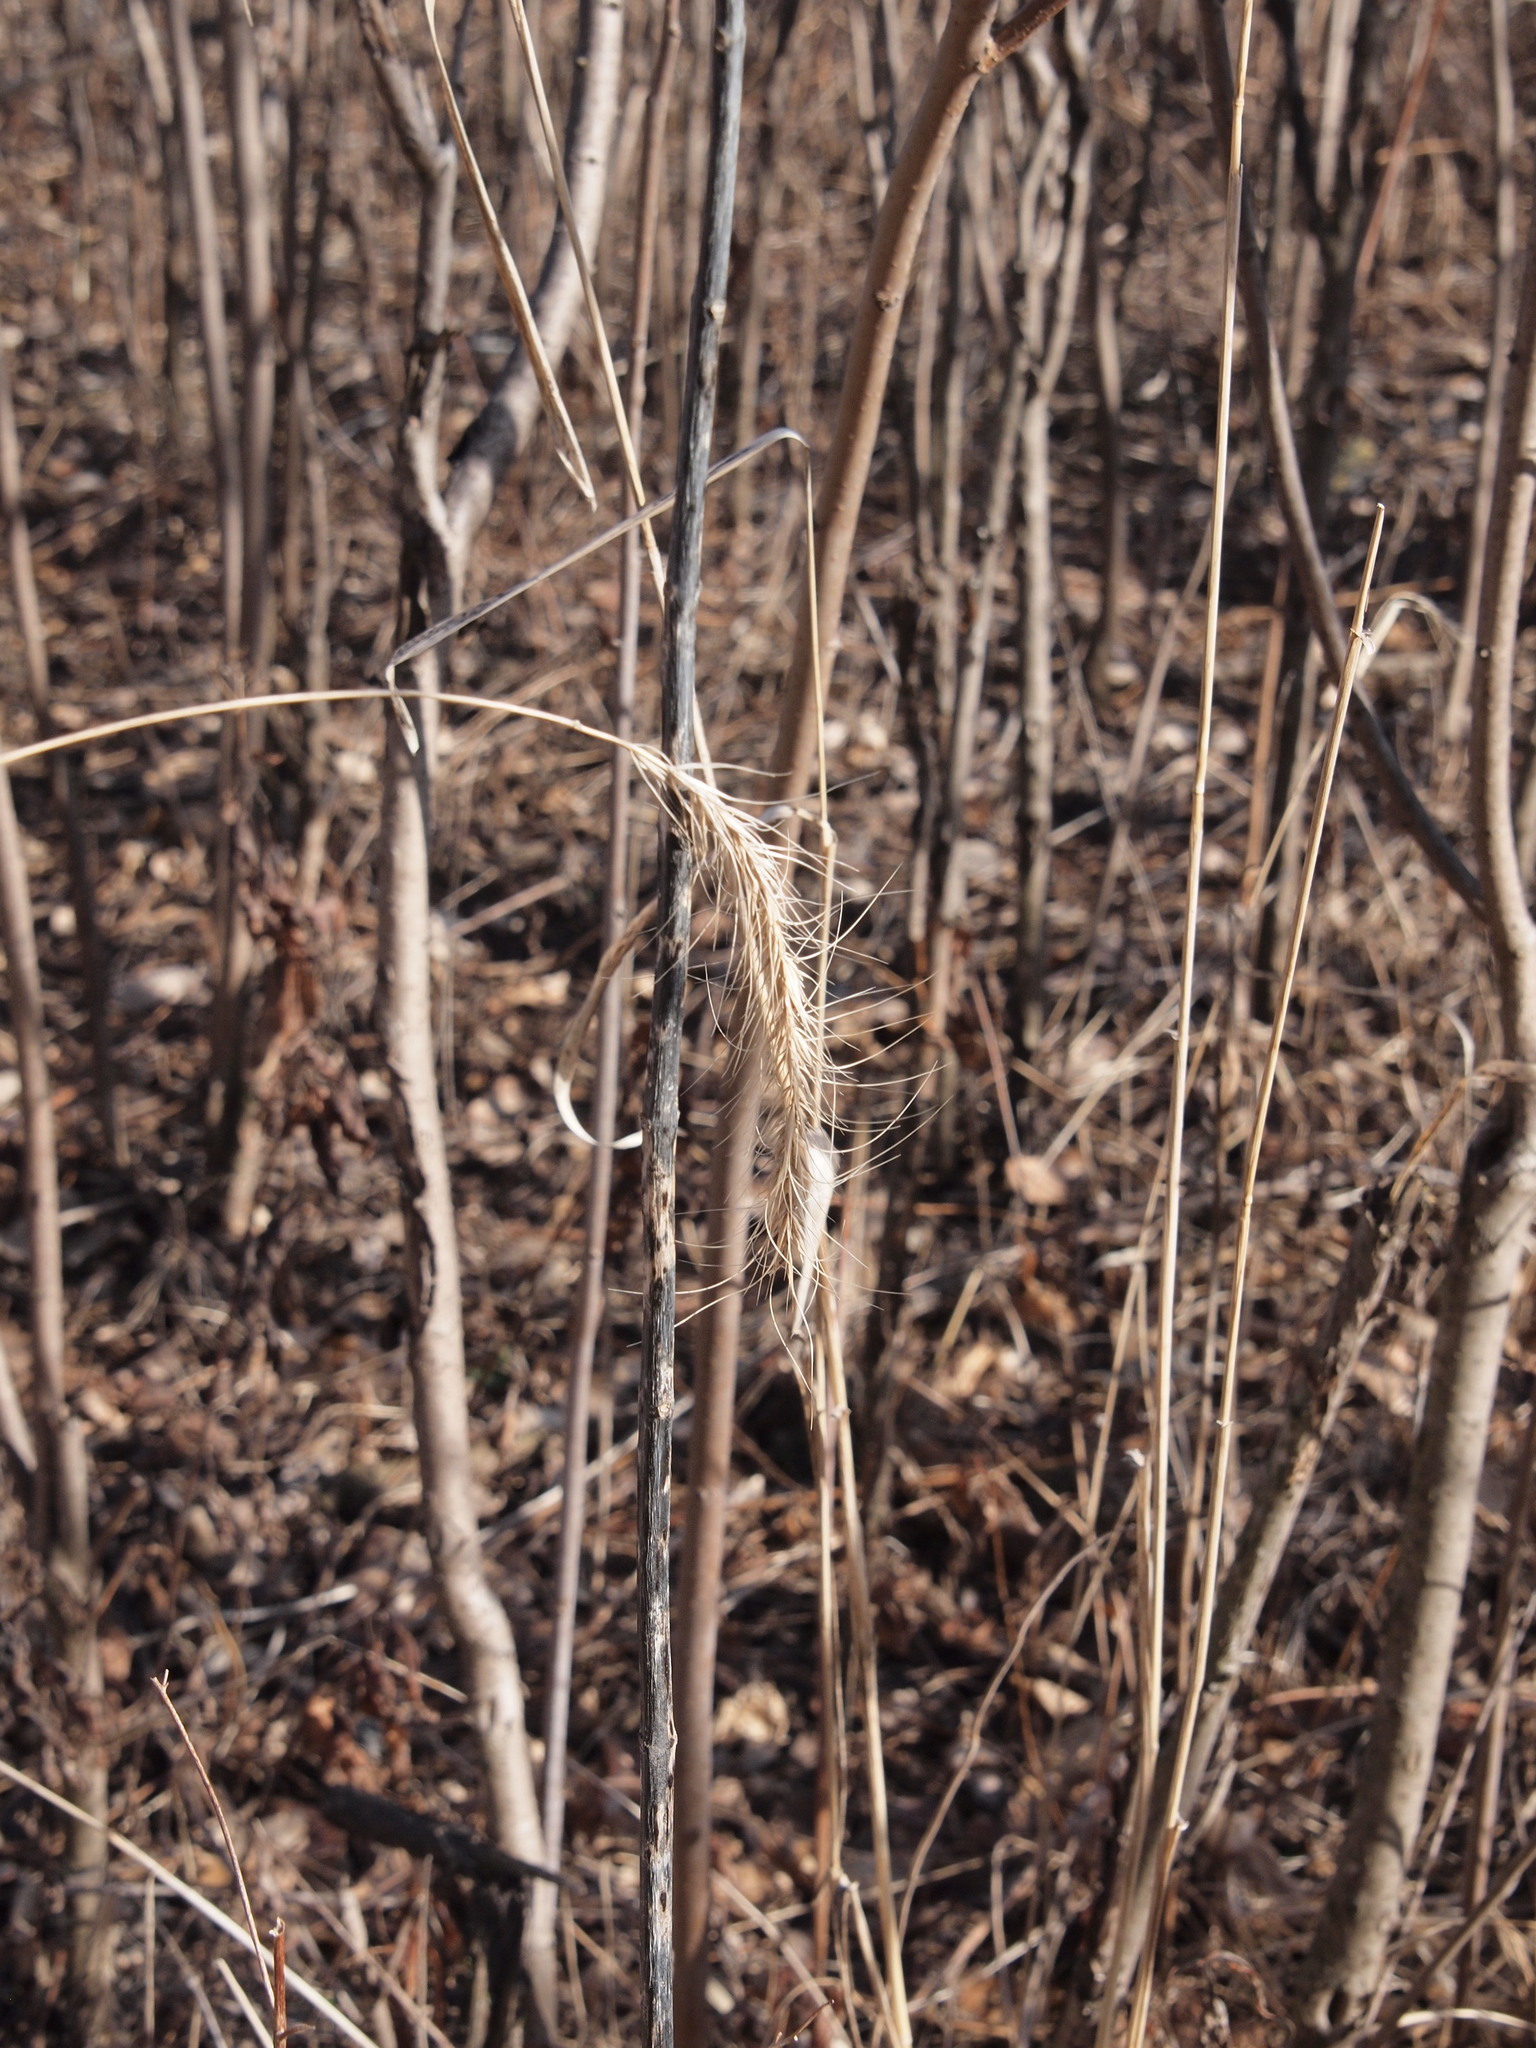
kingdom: Plantae
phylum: Tracheophyta
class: Liliopsida
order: Poales
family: Poaceae
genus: Elymus
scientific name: Elymus canadensis
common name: Canada wild rye
